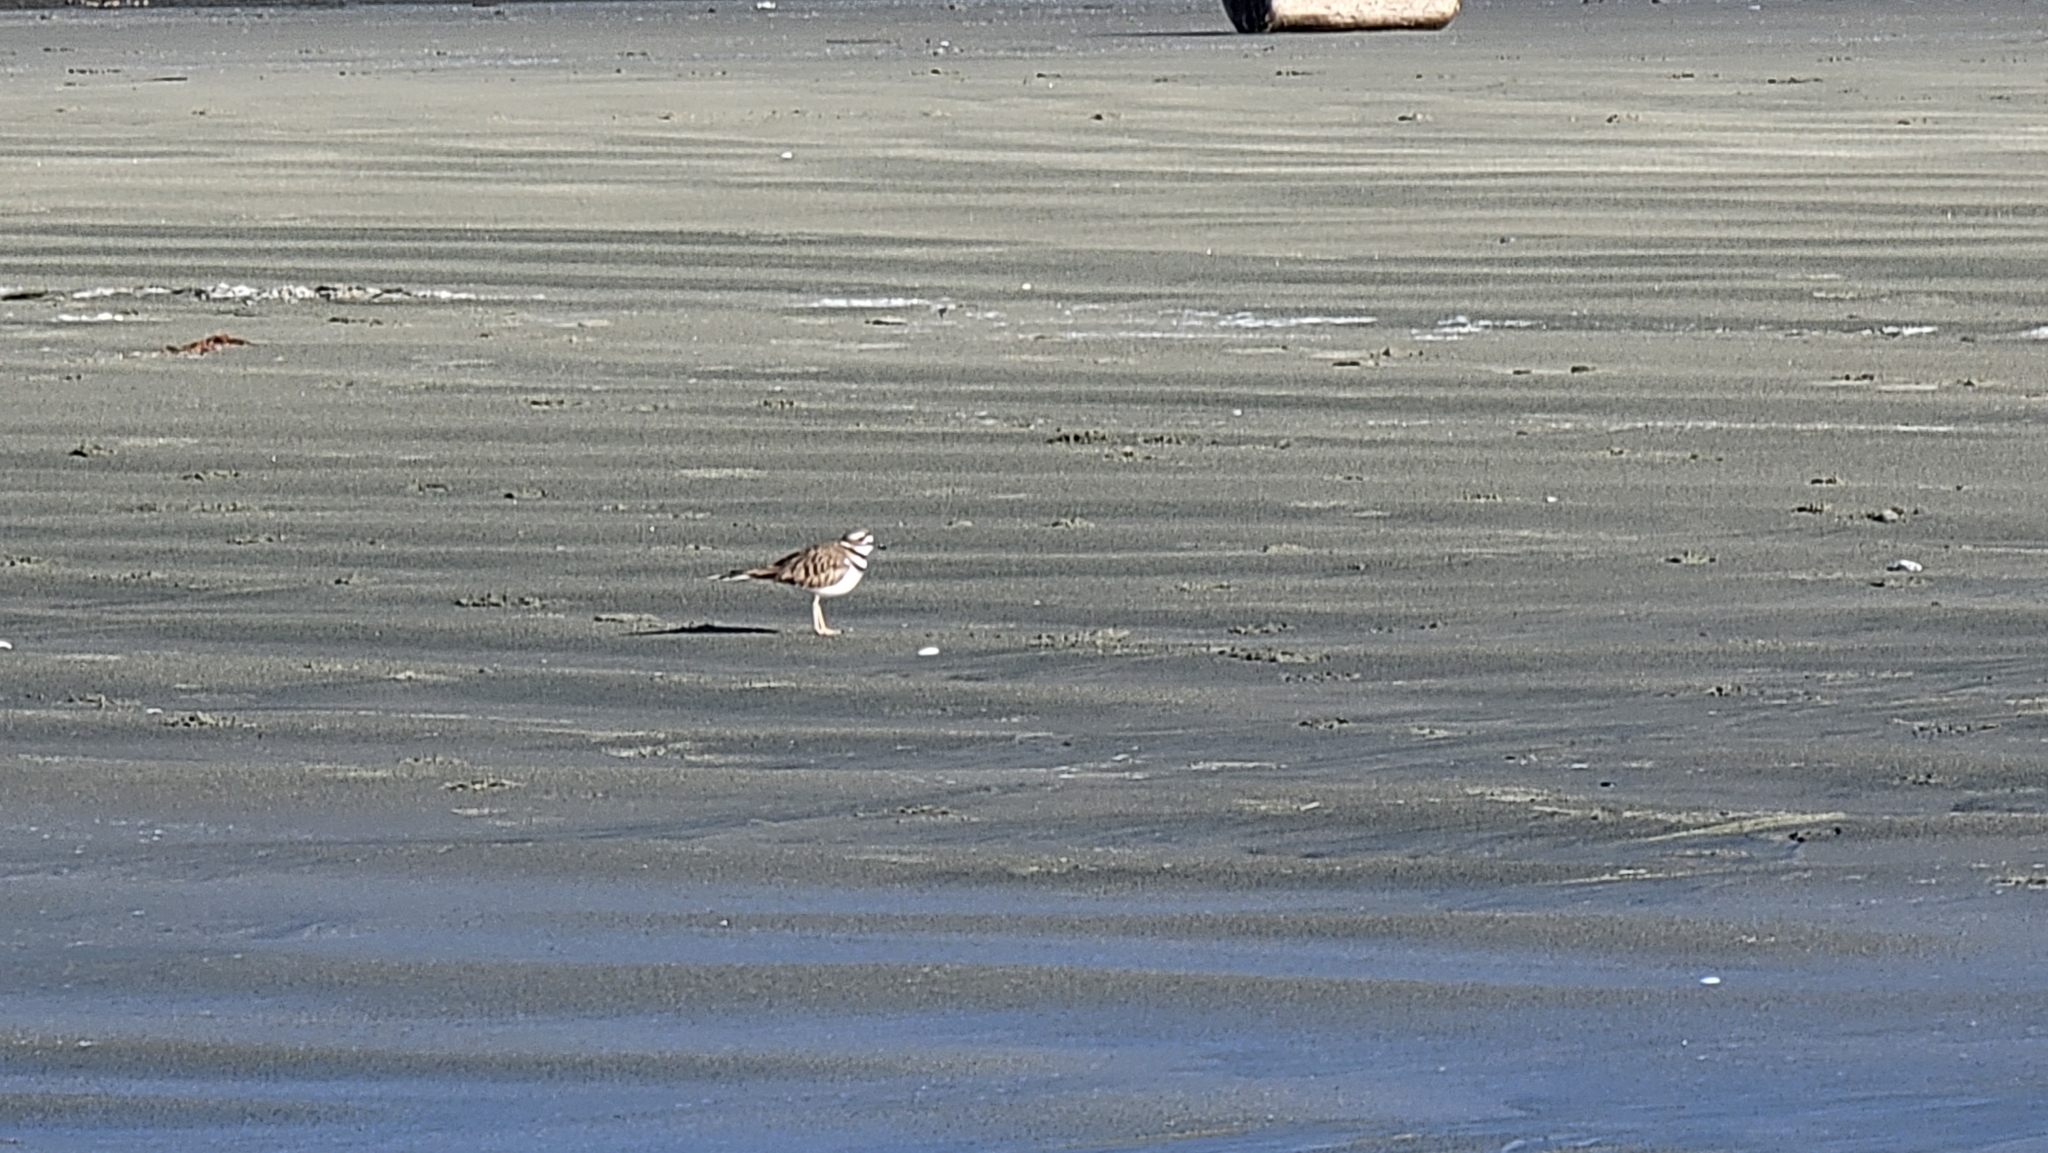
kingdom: Animalia
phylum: Chordata
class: Aves
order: Charadriiformes
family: Charadriidae
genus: Charadrius
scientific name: Charadrius vociferus
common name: Killdeer
